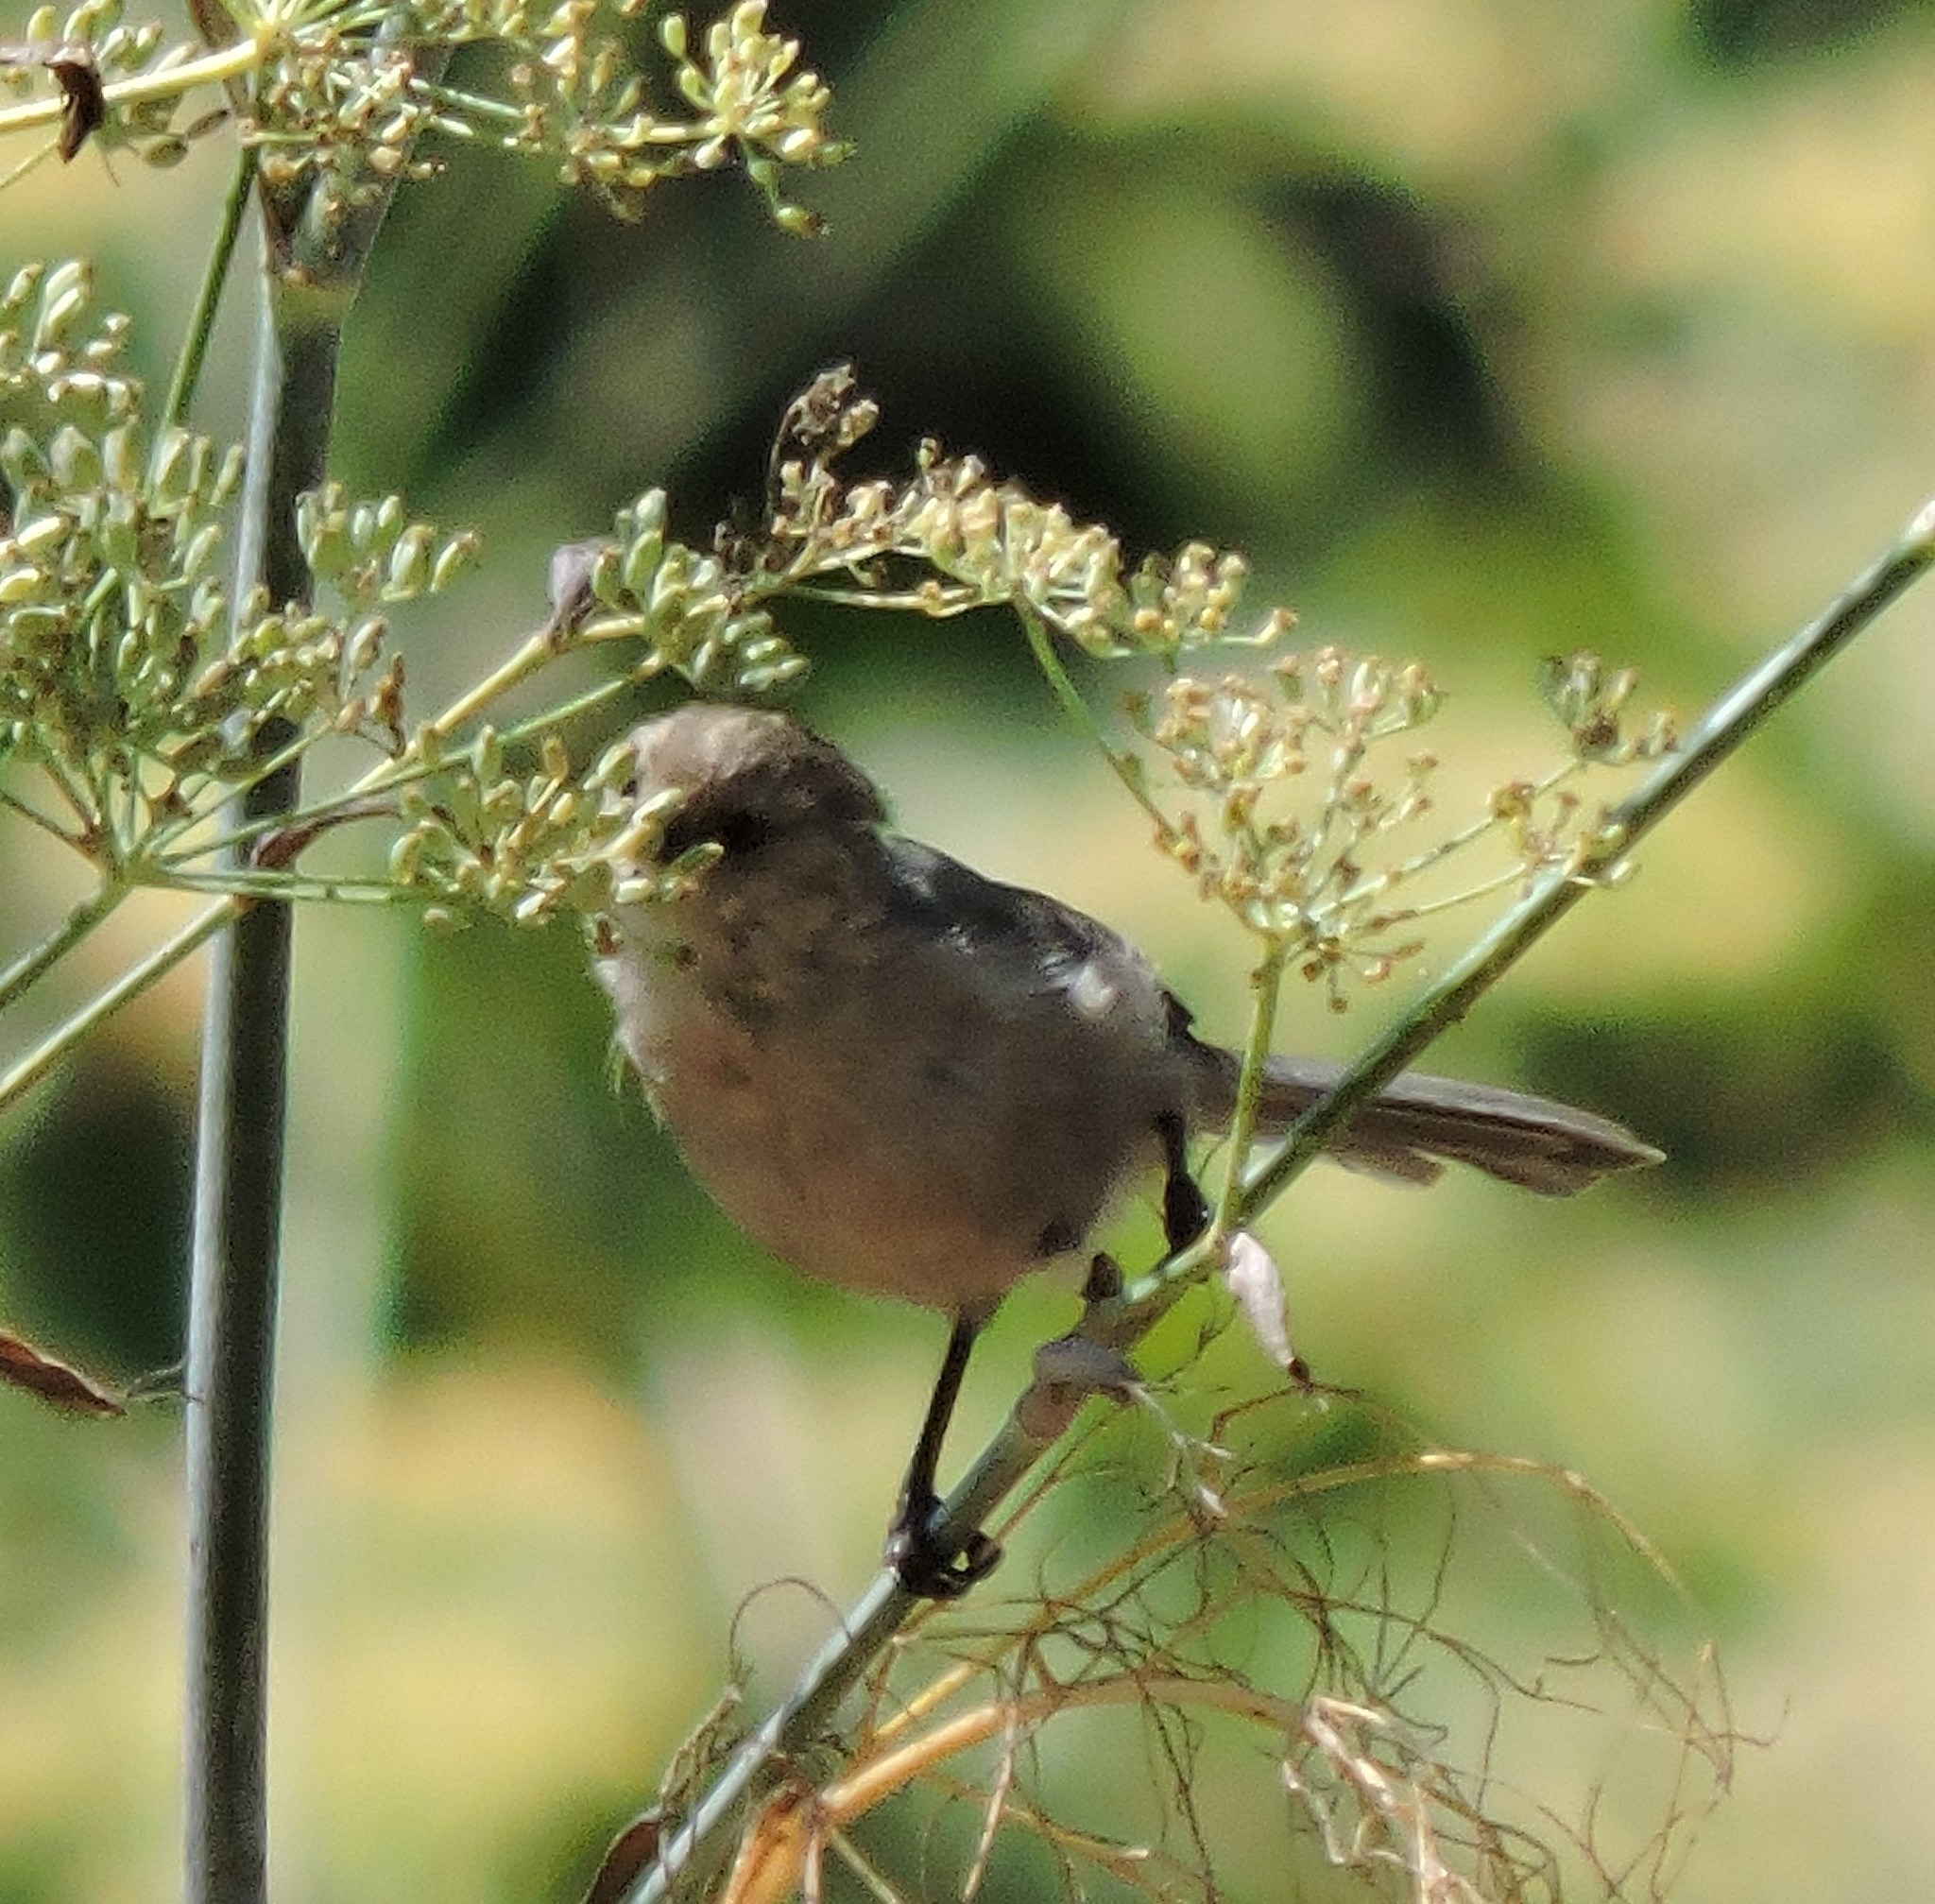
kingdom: Animalia
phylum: Chordata
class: Aves
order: Passeriformes
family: Aegithalidae
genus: Psaltriparus
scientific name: Psaltriparus minimus
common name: American bushtit
